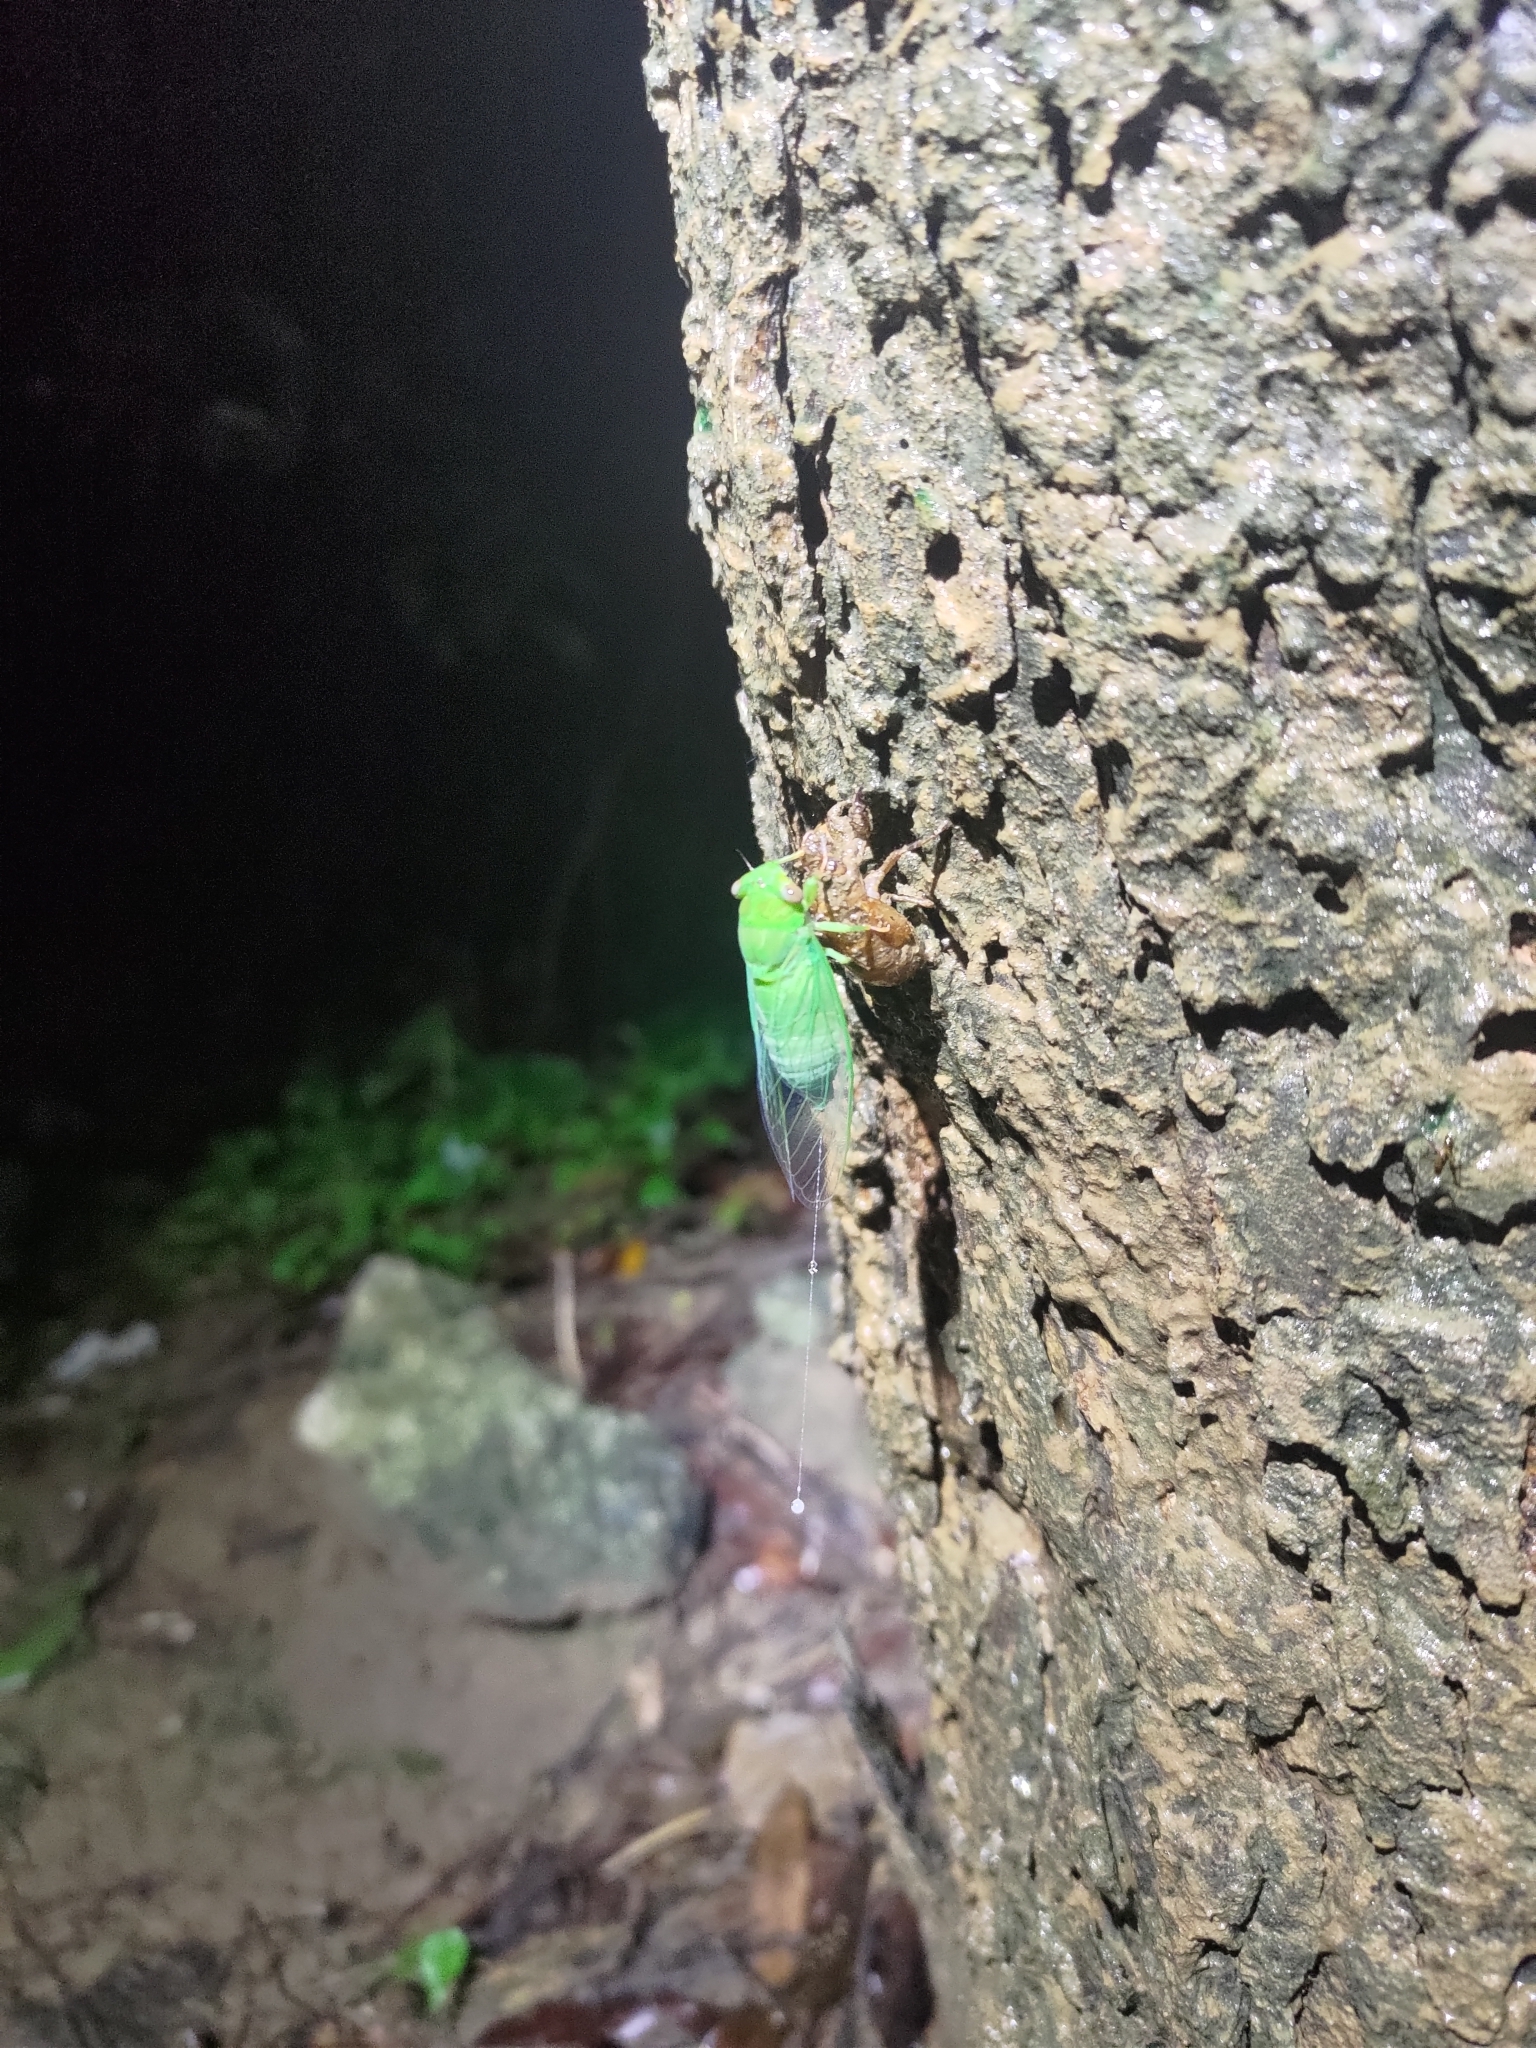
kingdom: Animalia
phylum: Arthropoda
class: Insecta
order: Hemiptera
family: Cicadidae
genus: Chremistica
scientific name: Chremistica ochracea
